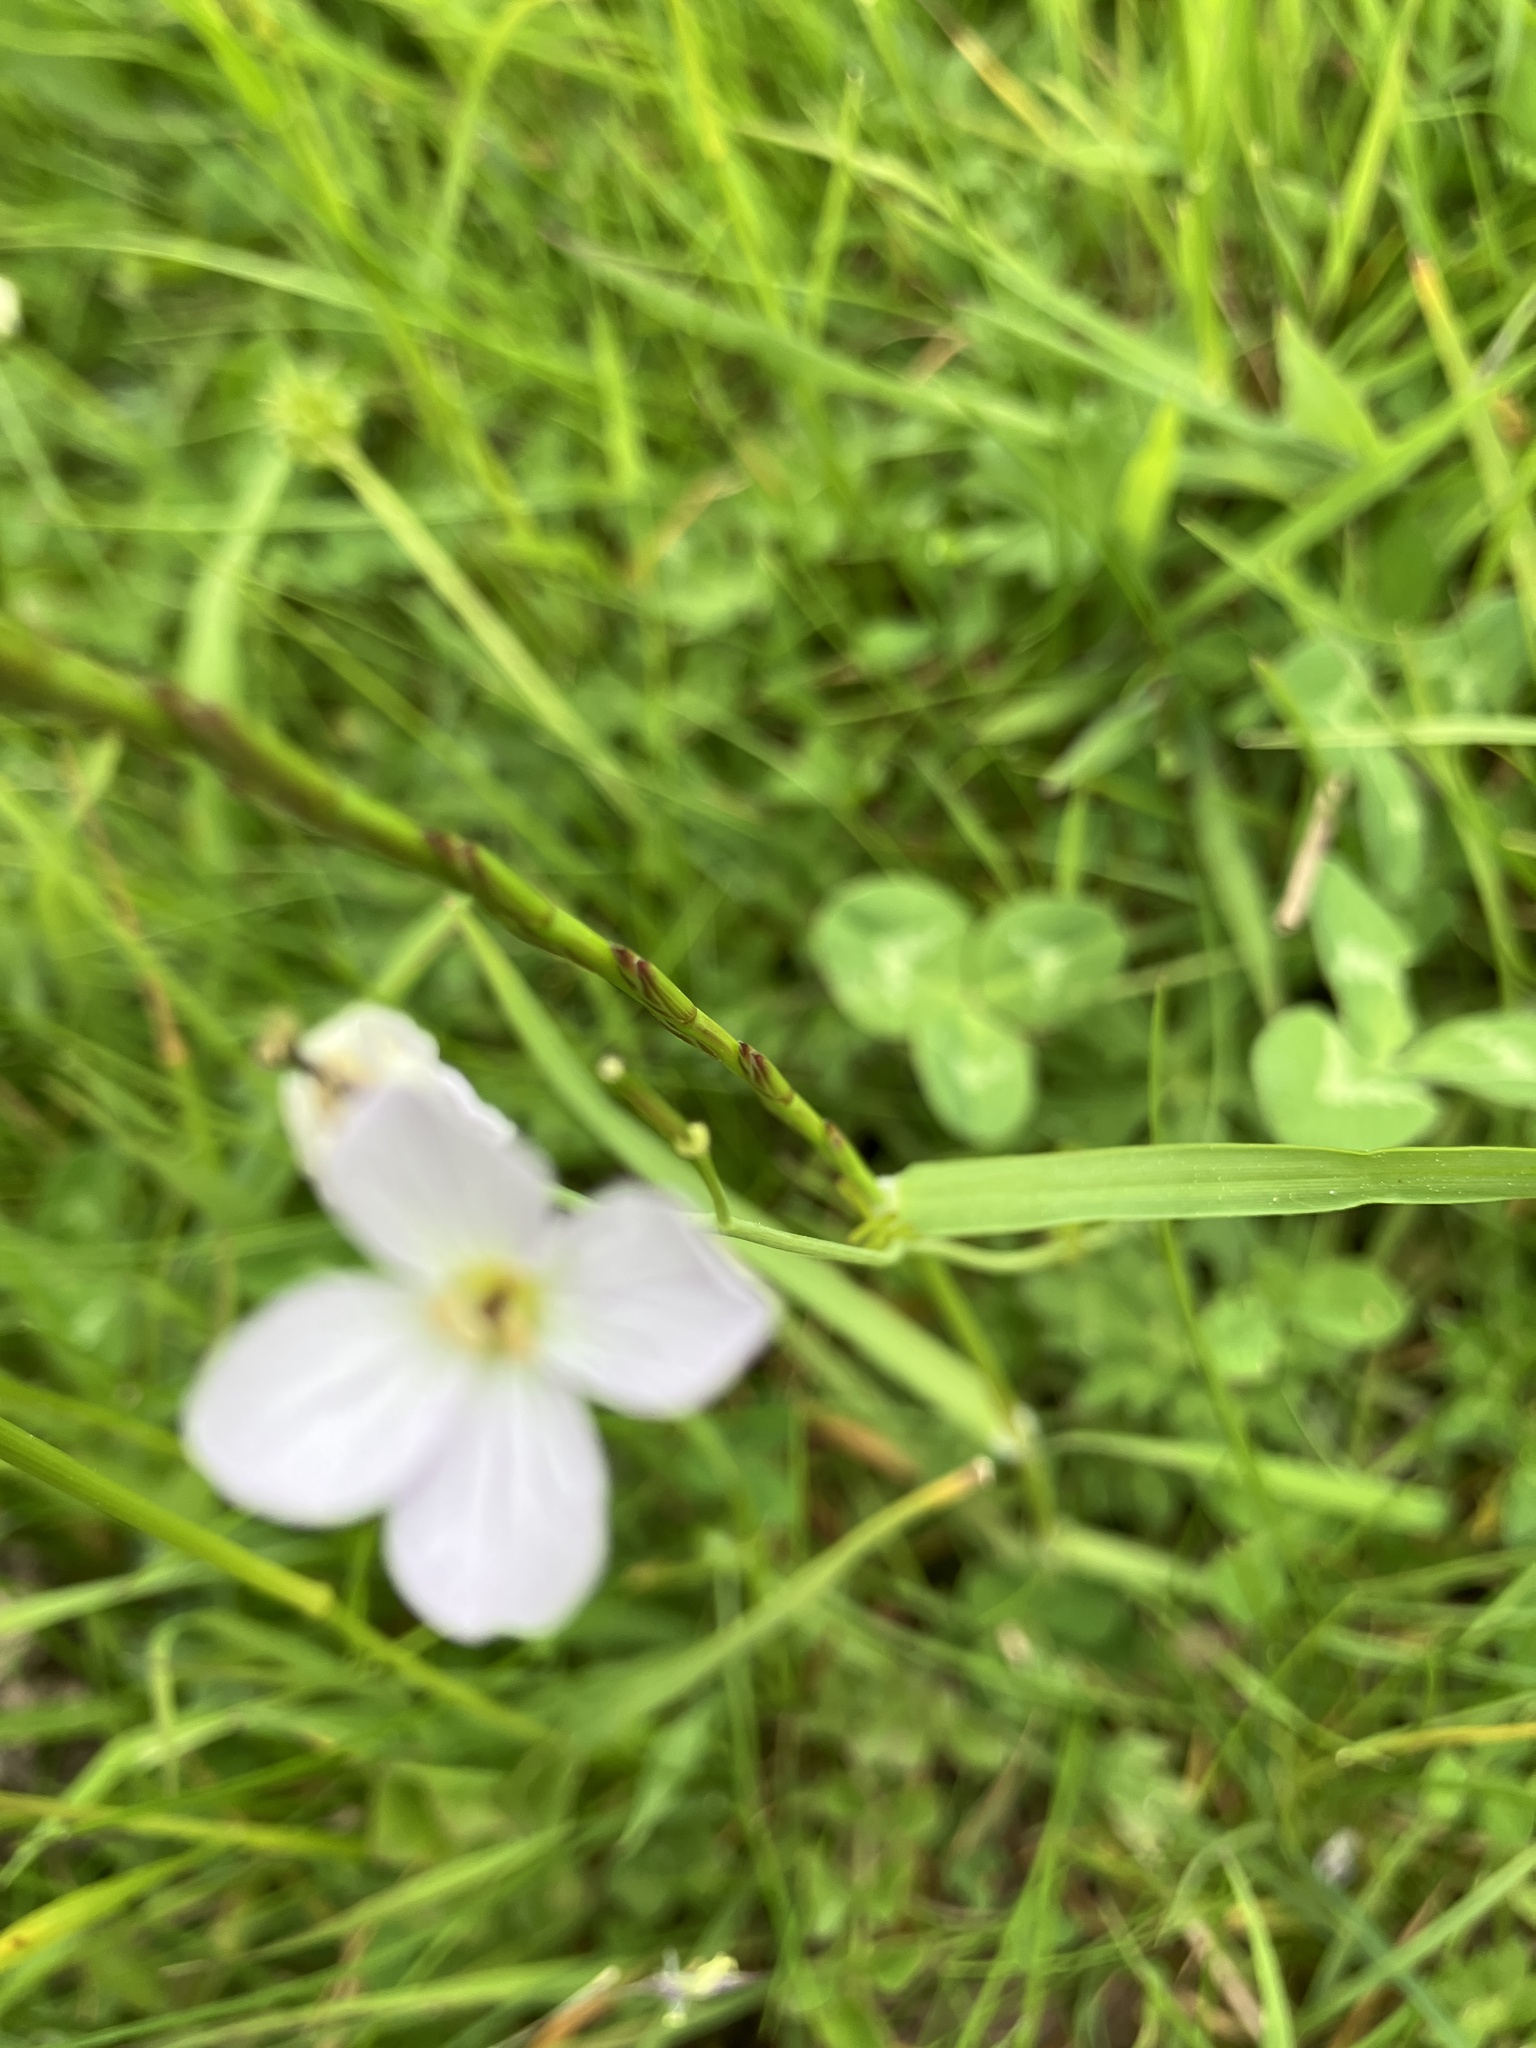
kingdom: Plantae
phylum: Tracheophyta
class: Magnoliopsida
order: Brassicales
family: Brassicaceae
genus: Cardamine
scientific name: Cardamine pratensis
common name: Cuckoo flower
